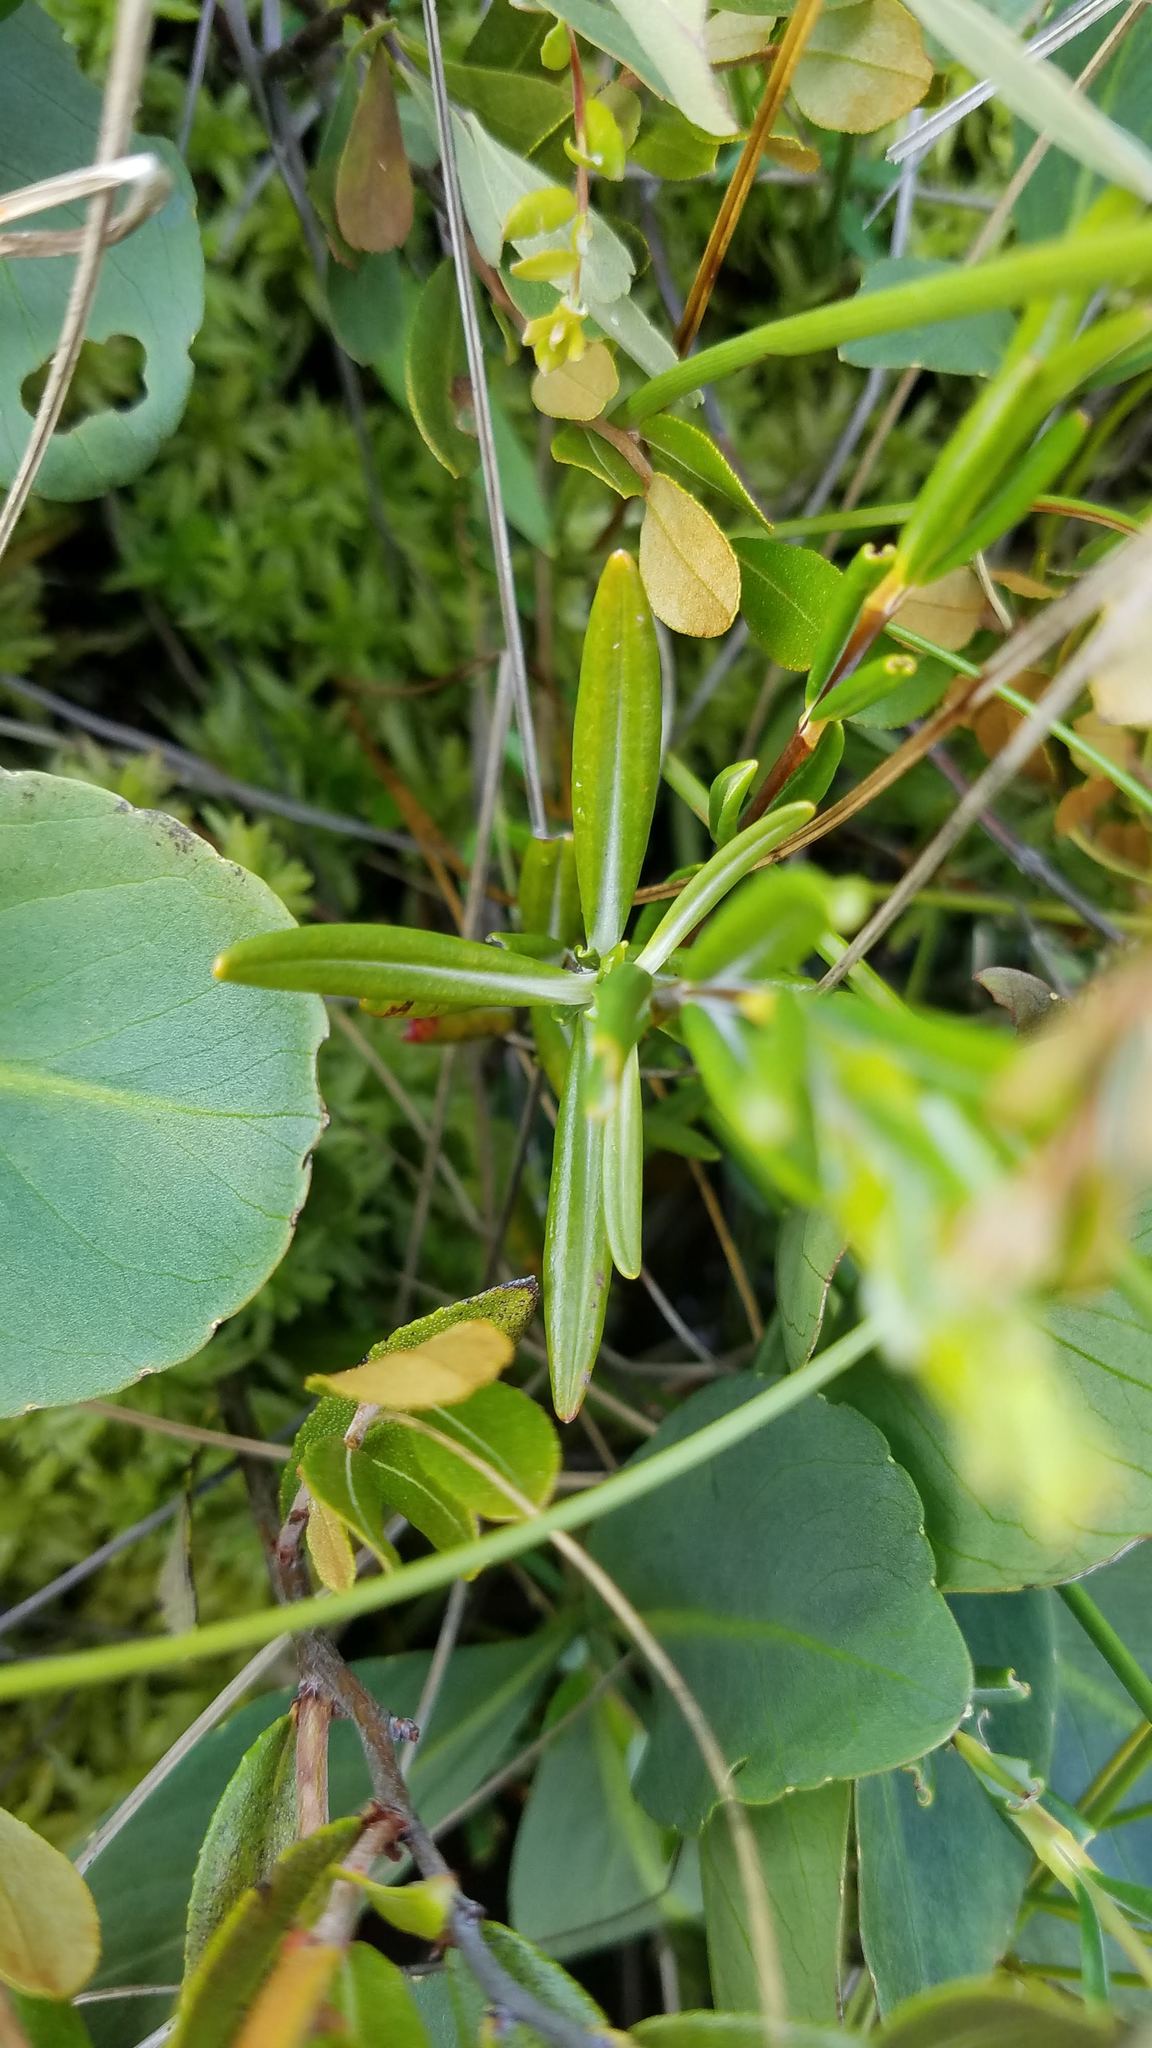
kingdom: Plantae
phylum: Tracheophyta
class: Magnoliopsida
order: Ericales
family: Ericaceae
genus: Kalmia
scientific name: Kalmia polifolia
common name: Bog-laurel
